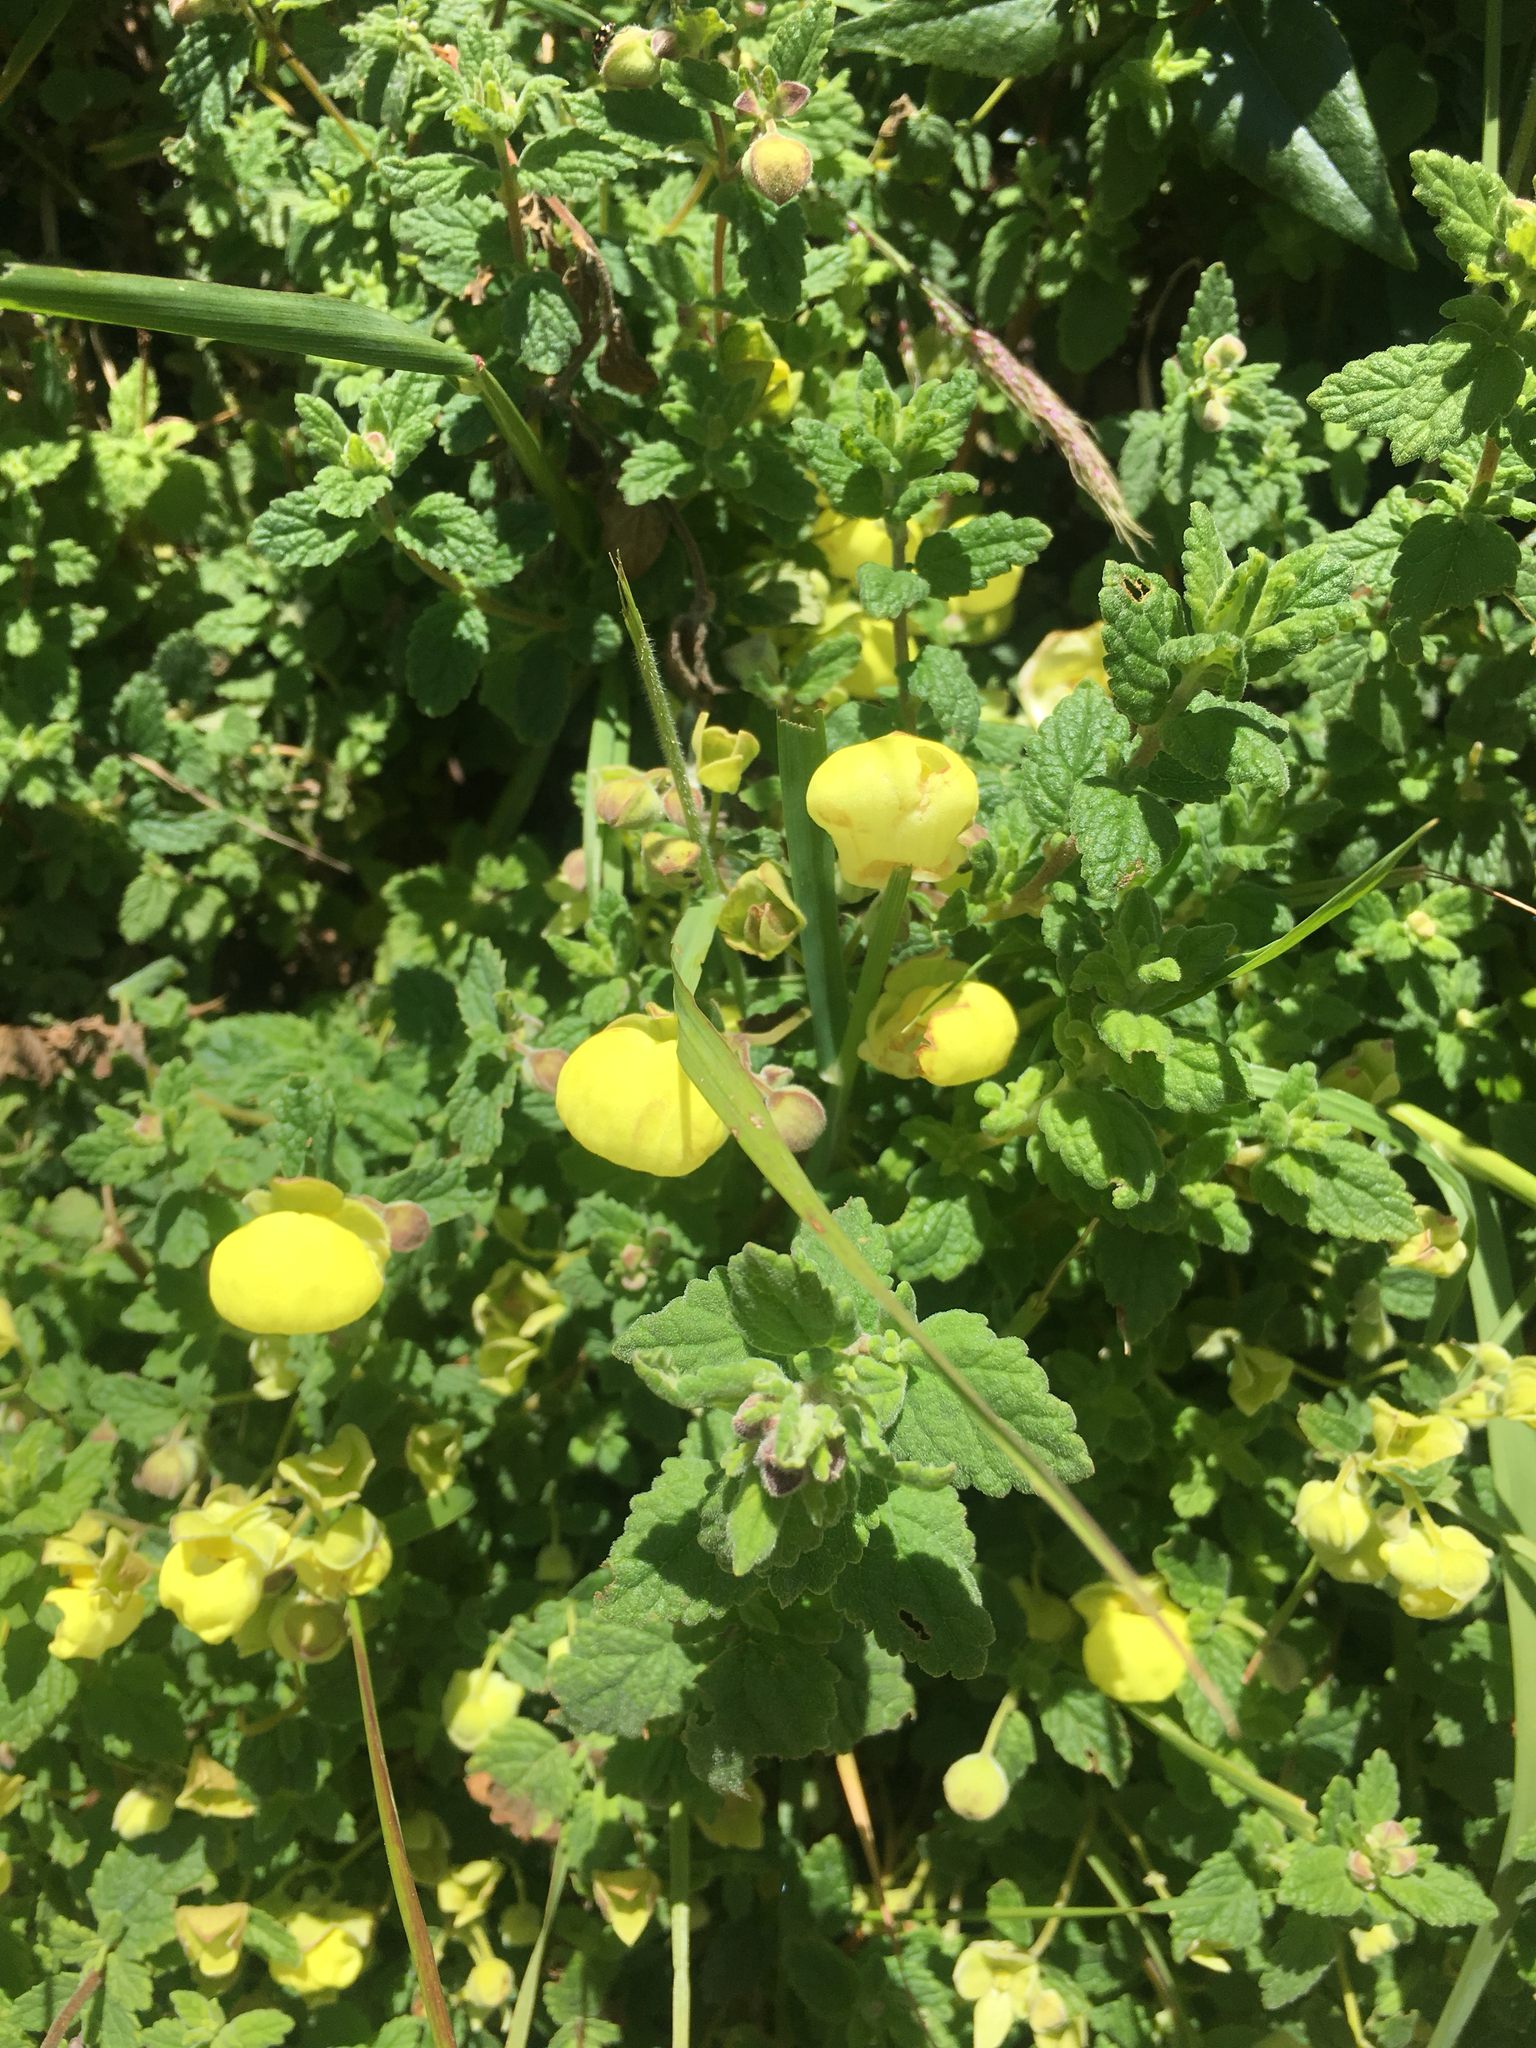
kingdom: Plantae
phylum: Tracheophyta
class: Magnoliopsida
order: Lamiales
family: Calceolariaceae
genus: Calceolaria
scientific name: Calceolaria tripartita
